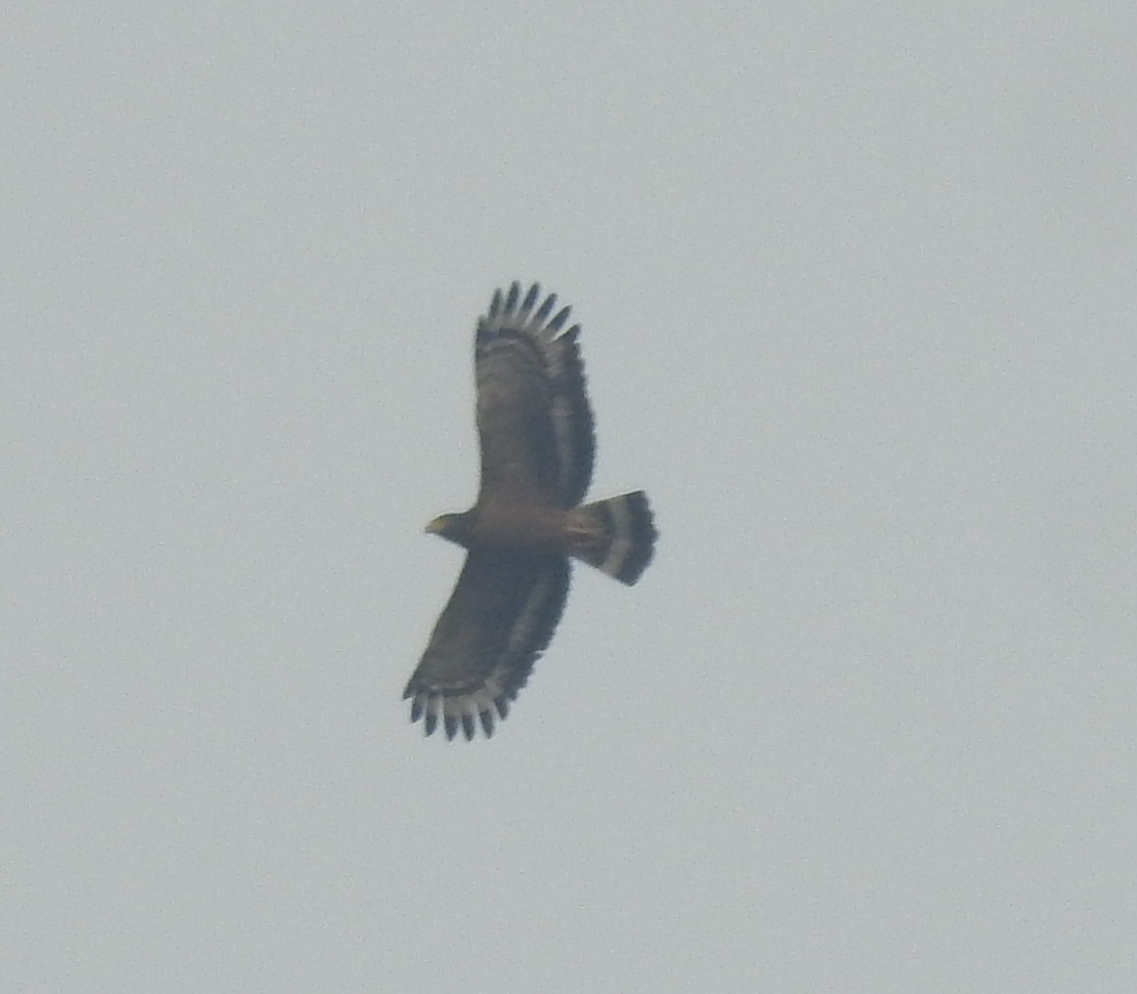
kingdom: Animalia
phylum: Chordata
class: Aves
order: Accipitriformes
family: Accipitridae
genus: Spilornis
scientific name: Spilornis cheela
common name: Crested serpent eagle
